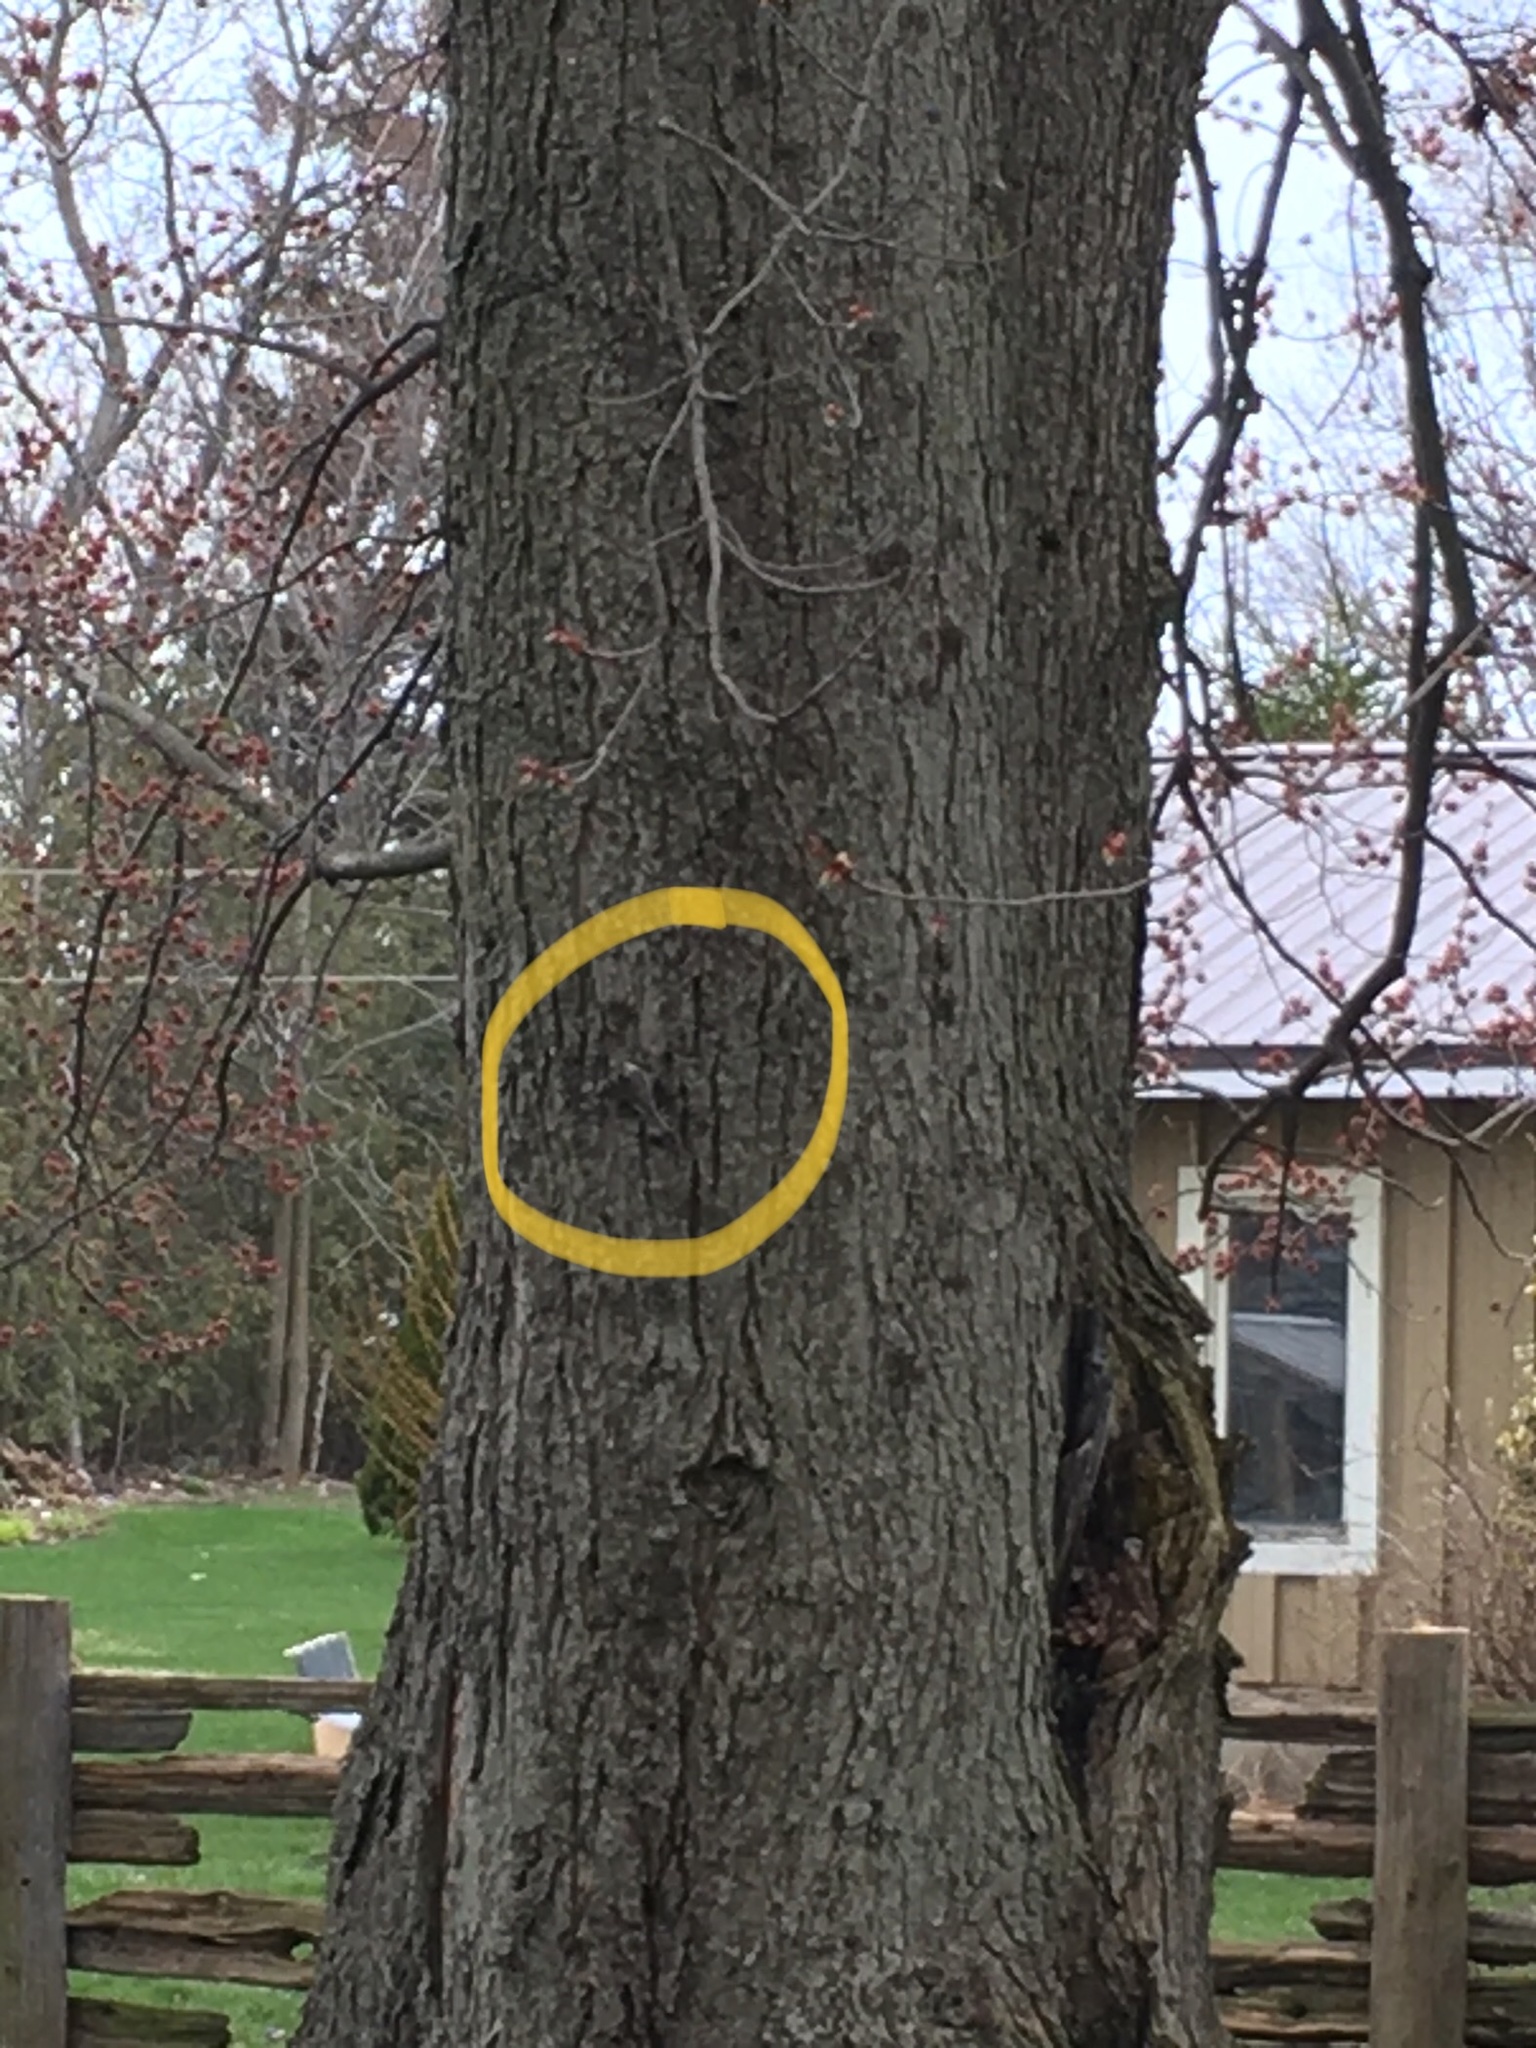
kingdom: Animalia
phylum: Chordata
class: Aves
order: Passeriformes
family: Certhiidae
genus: Certhia
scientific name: Certhia americana
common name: Brown creeper
